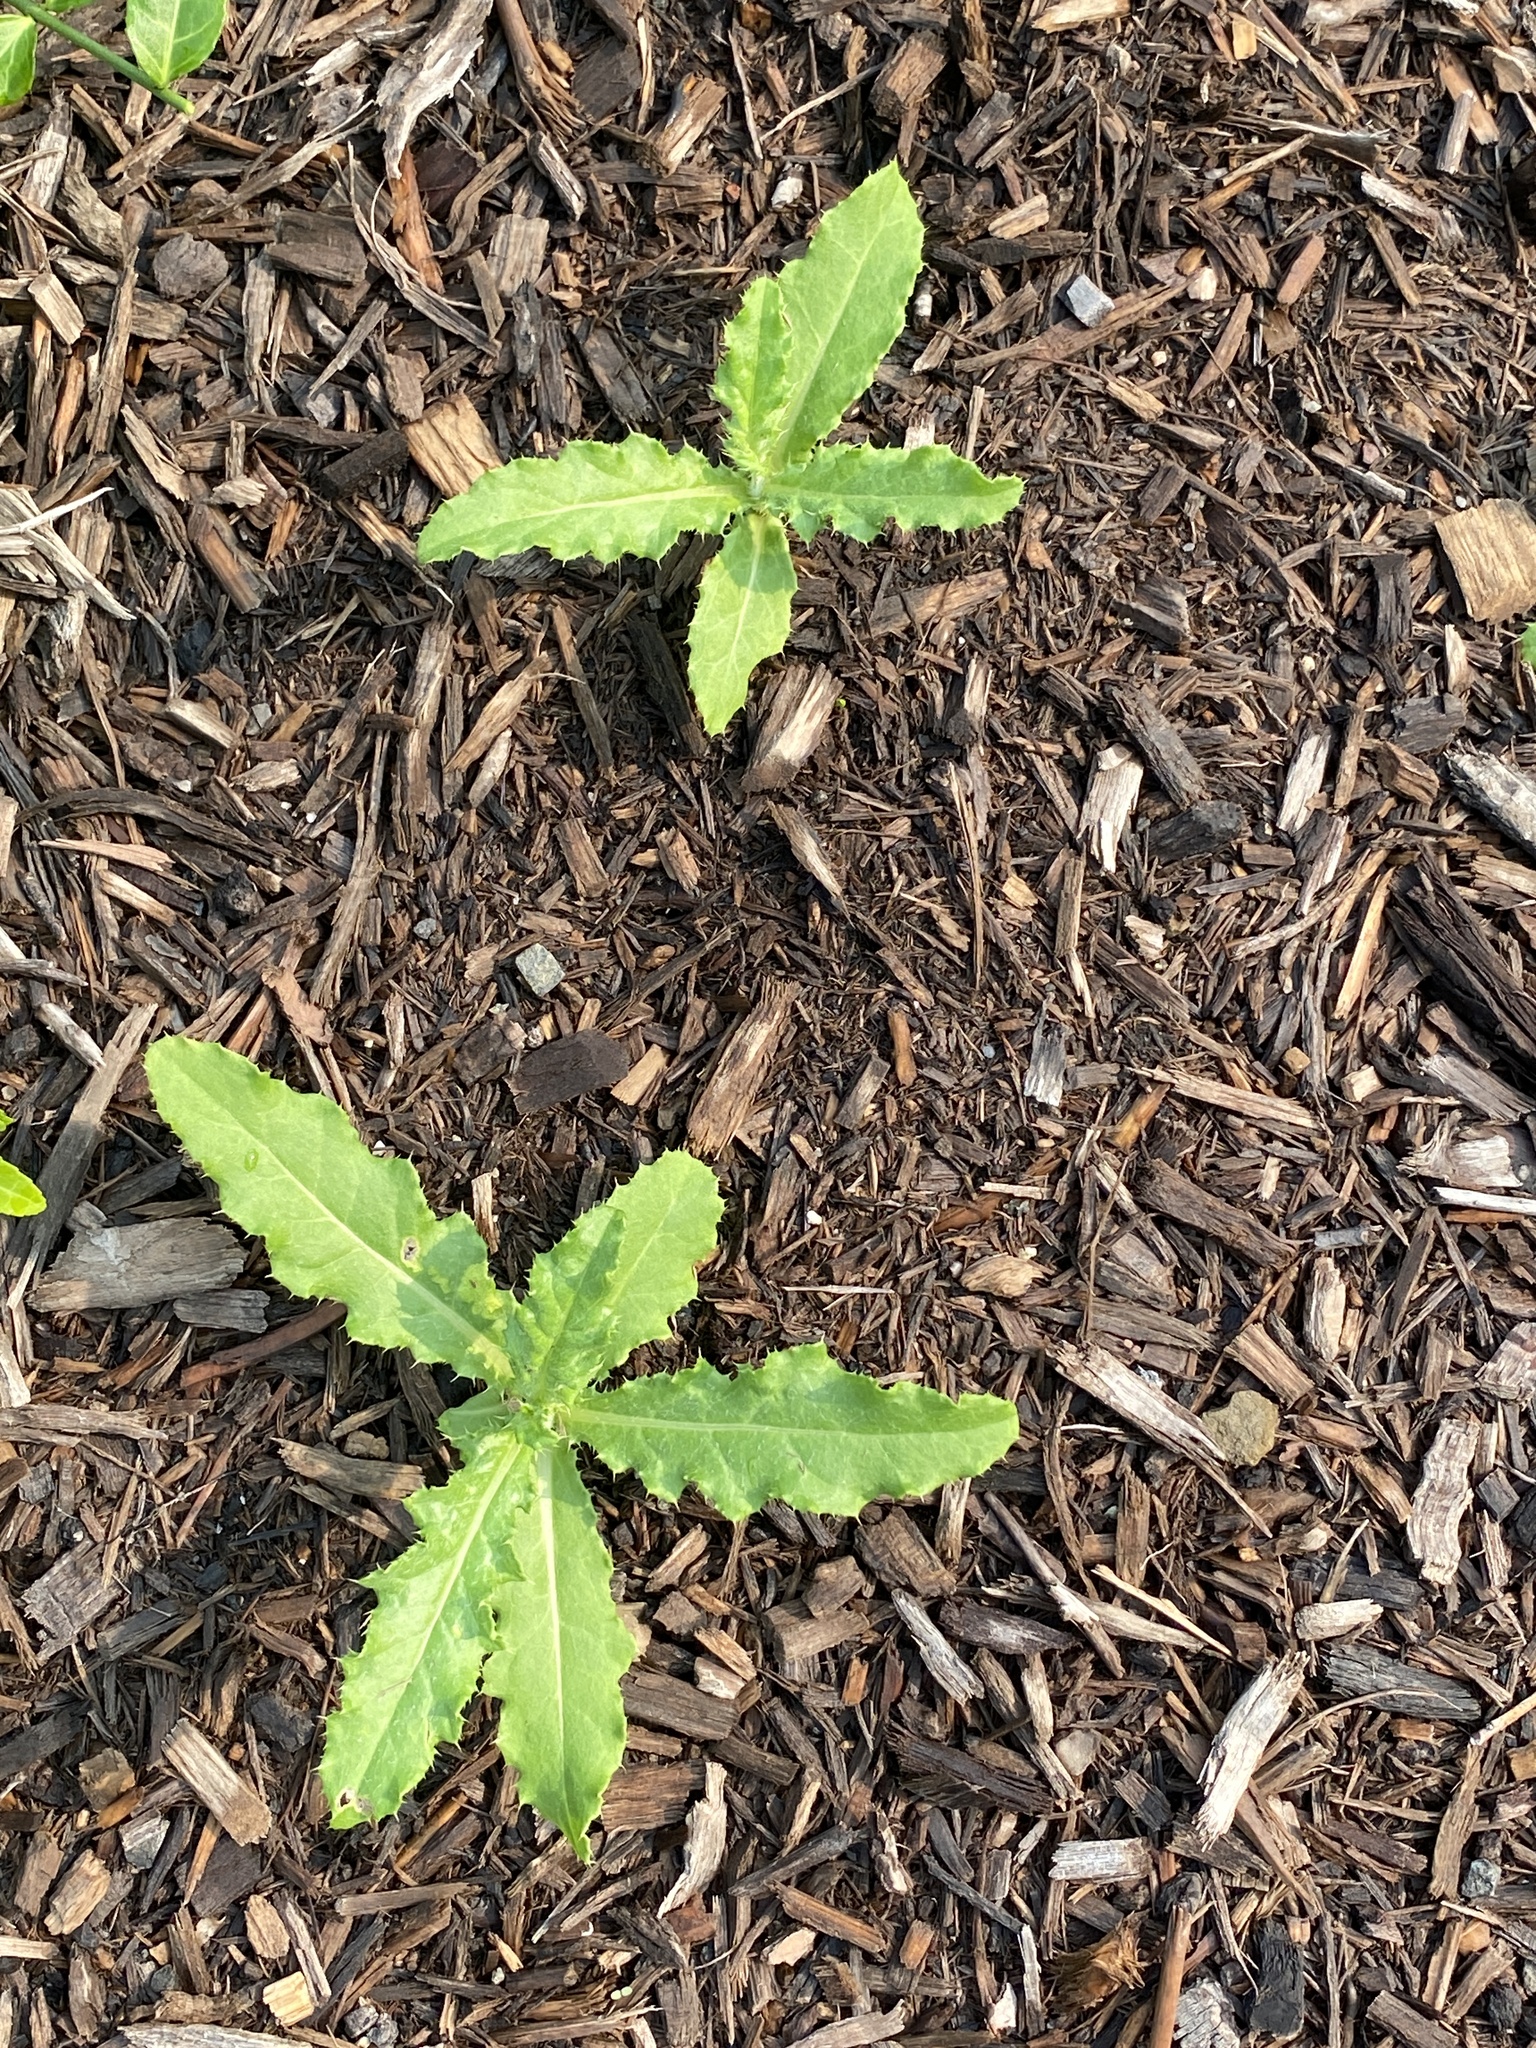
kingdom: Plantae
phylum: Tracheophyta
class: Magnoliopsida
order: Asterales
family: Asteraceae
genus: Cirsium
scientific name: Cirsium arvense
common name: Creeping thistle
